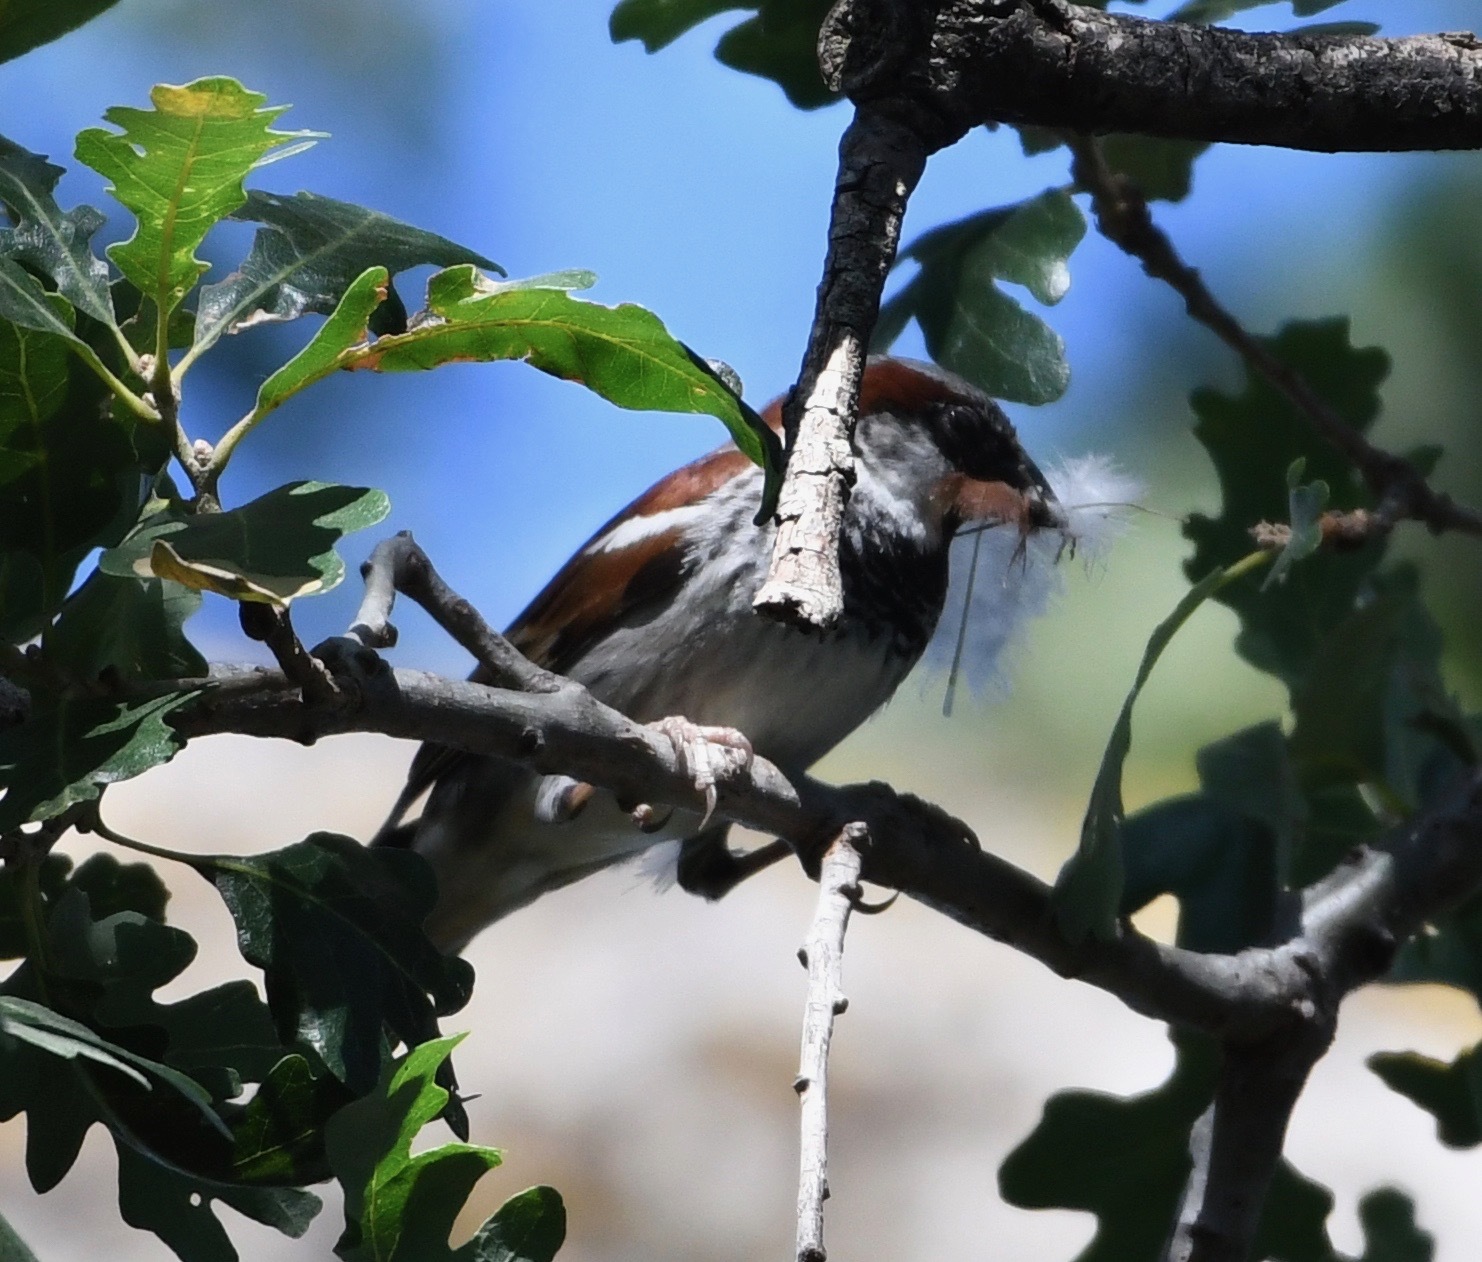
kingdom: Animalia
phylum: Chordata
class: Aves
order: Passeriformes
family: Passeridae
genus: Passer
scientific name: Passer domesticus
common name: House sparrow
